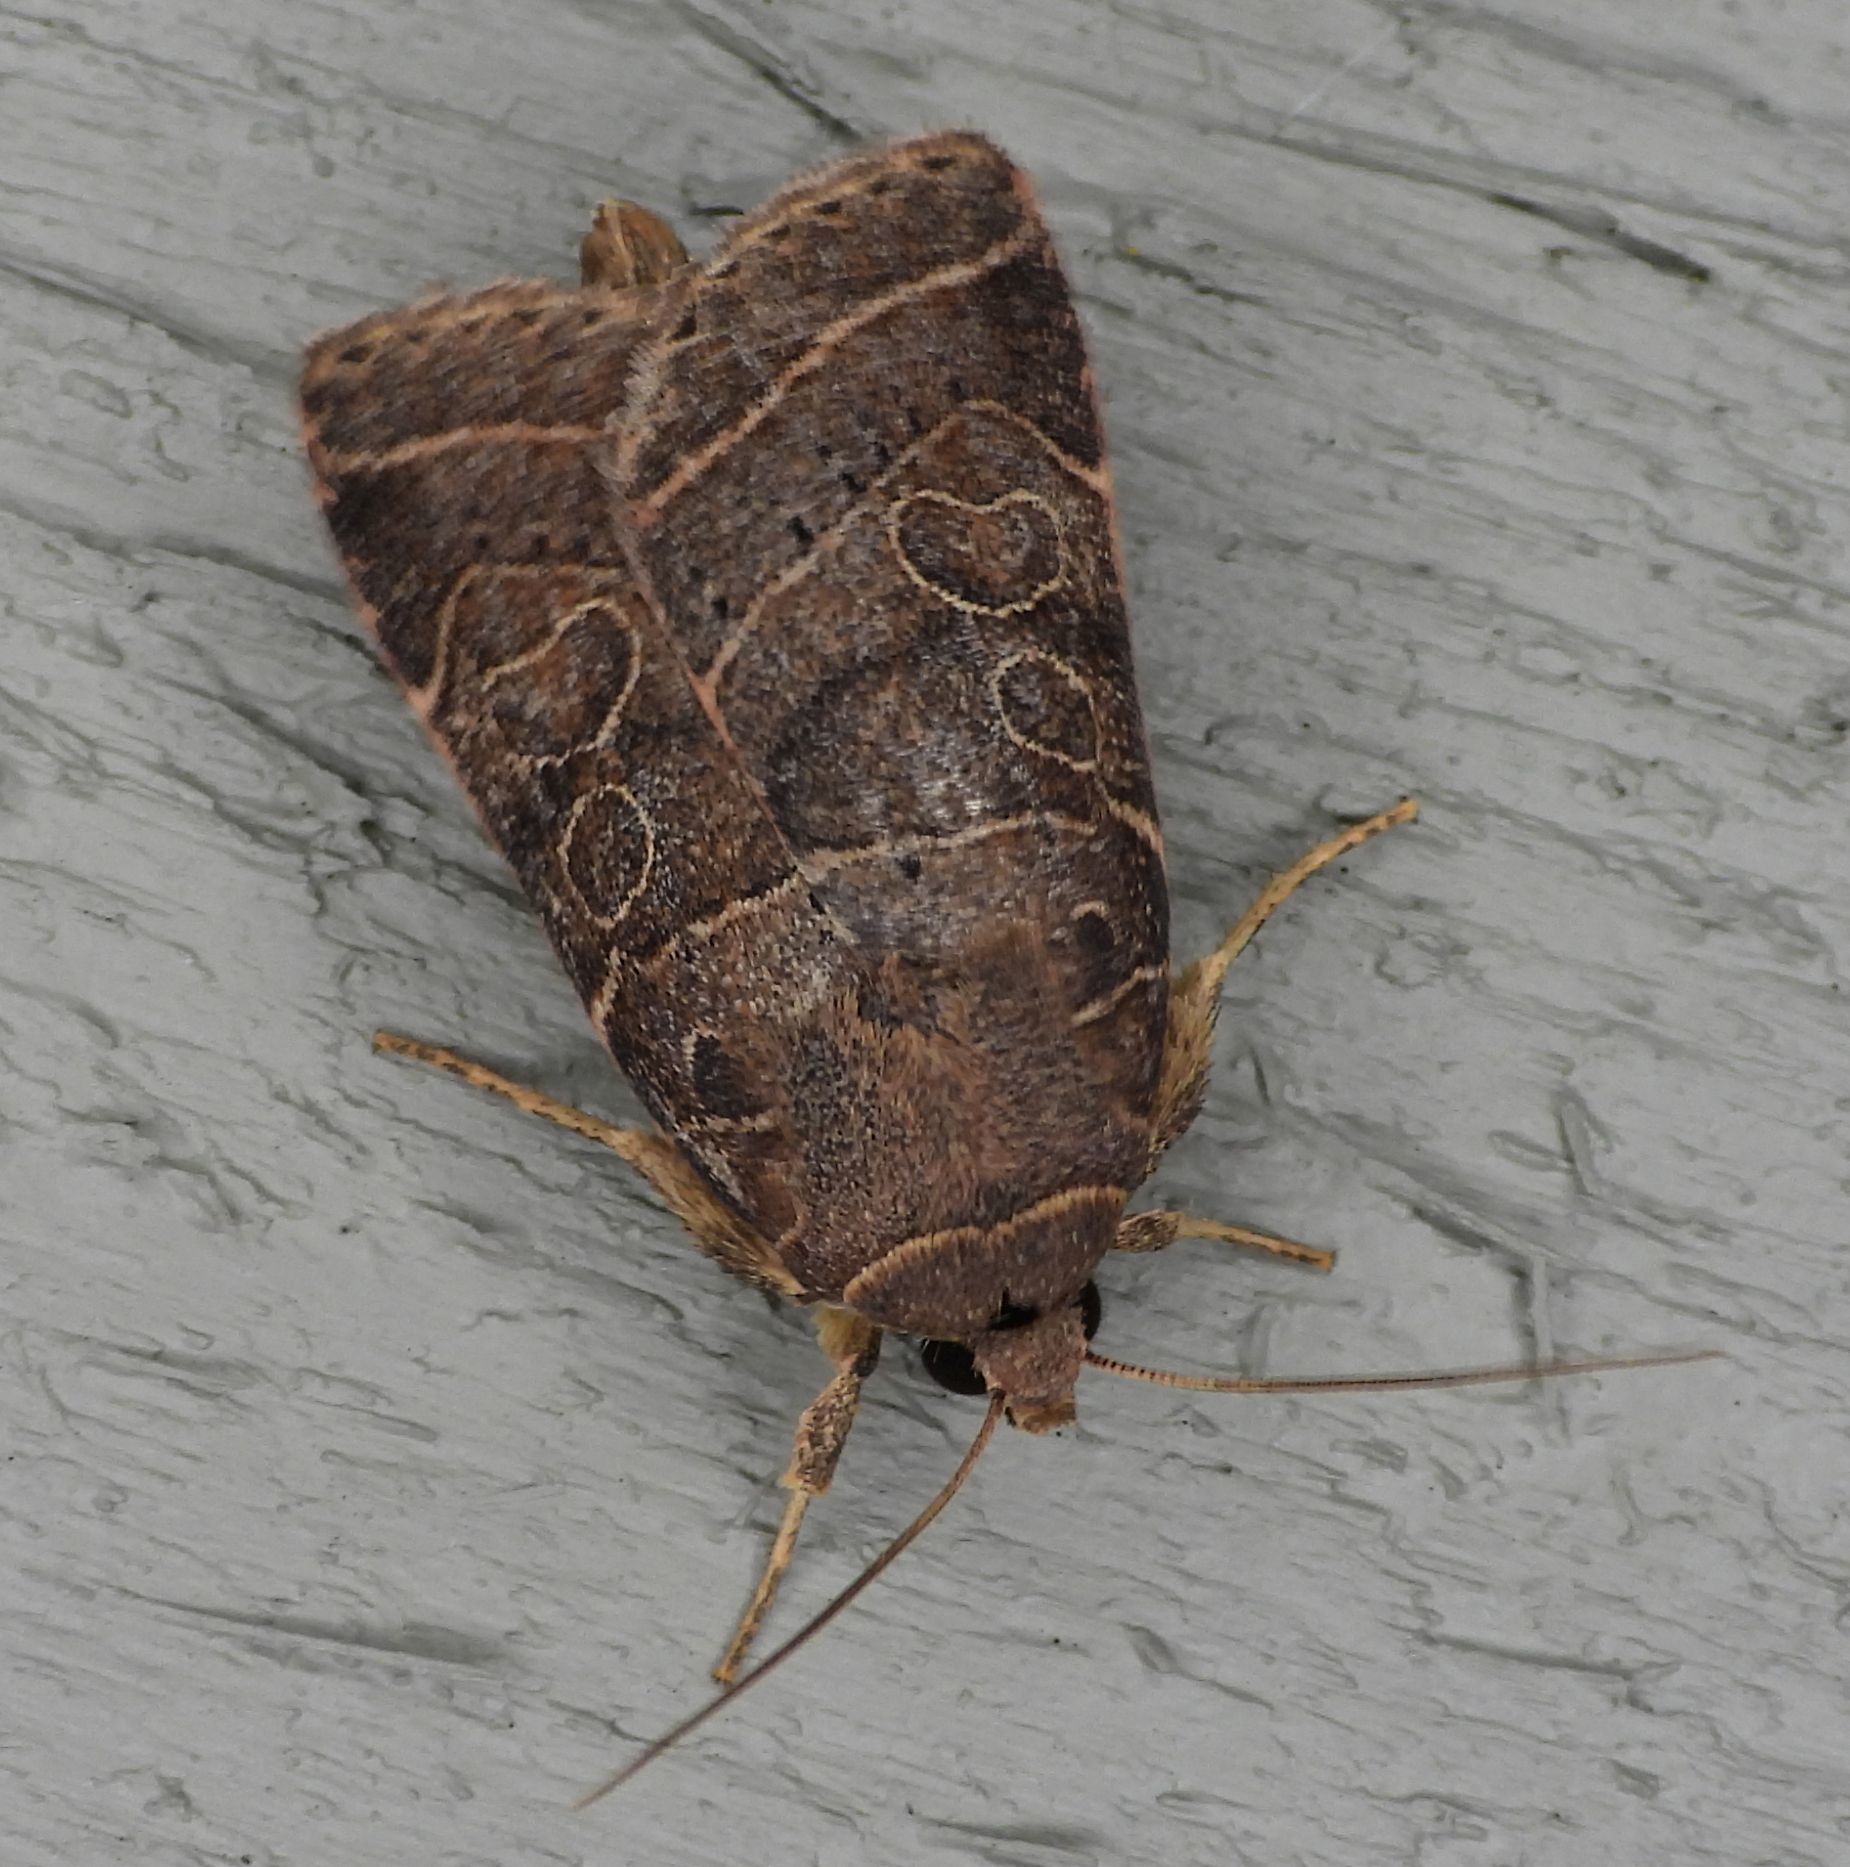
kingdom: Animalia
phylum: Arthropoda
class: Insecta
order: Lepidoptera
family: Noctuidae
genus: Orthodes
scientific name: Orthodes majuscula
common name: Rustic quaker
